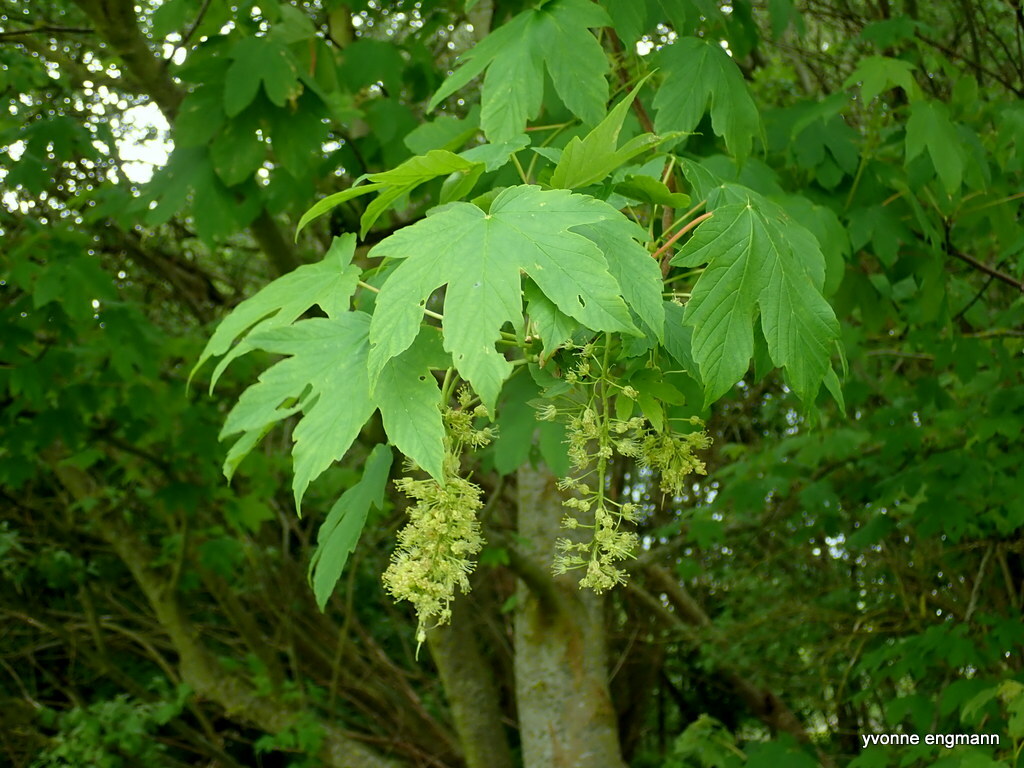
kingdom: Plantae
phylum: Tracheophyta
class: Magnoliopsida
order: Sapindales
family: Sapindaceae
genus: Acer
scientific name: Acer pseudoplatanus
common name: Sycamore
